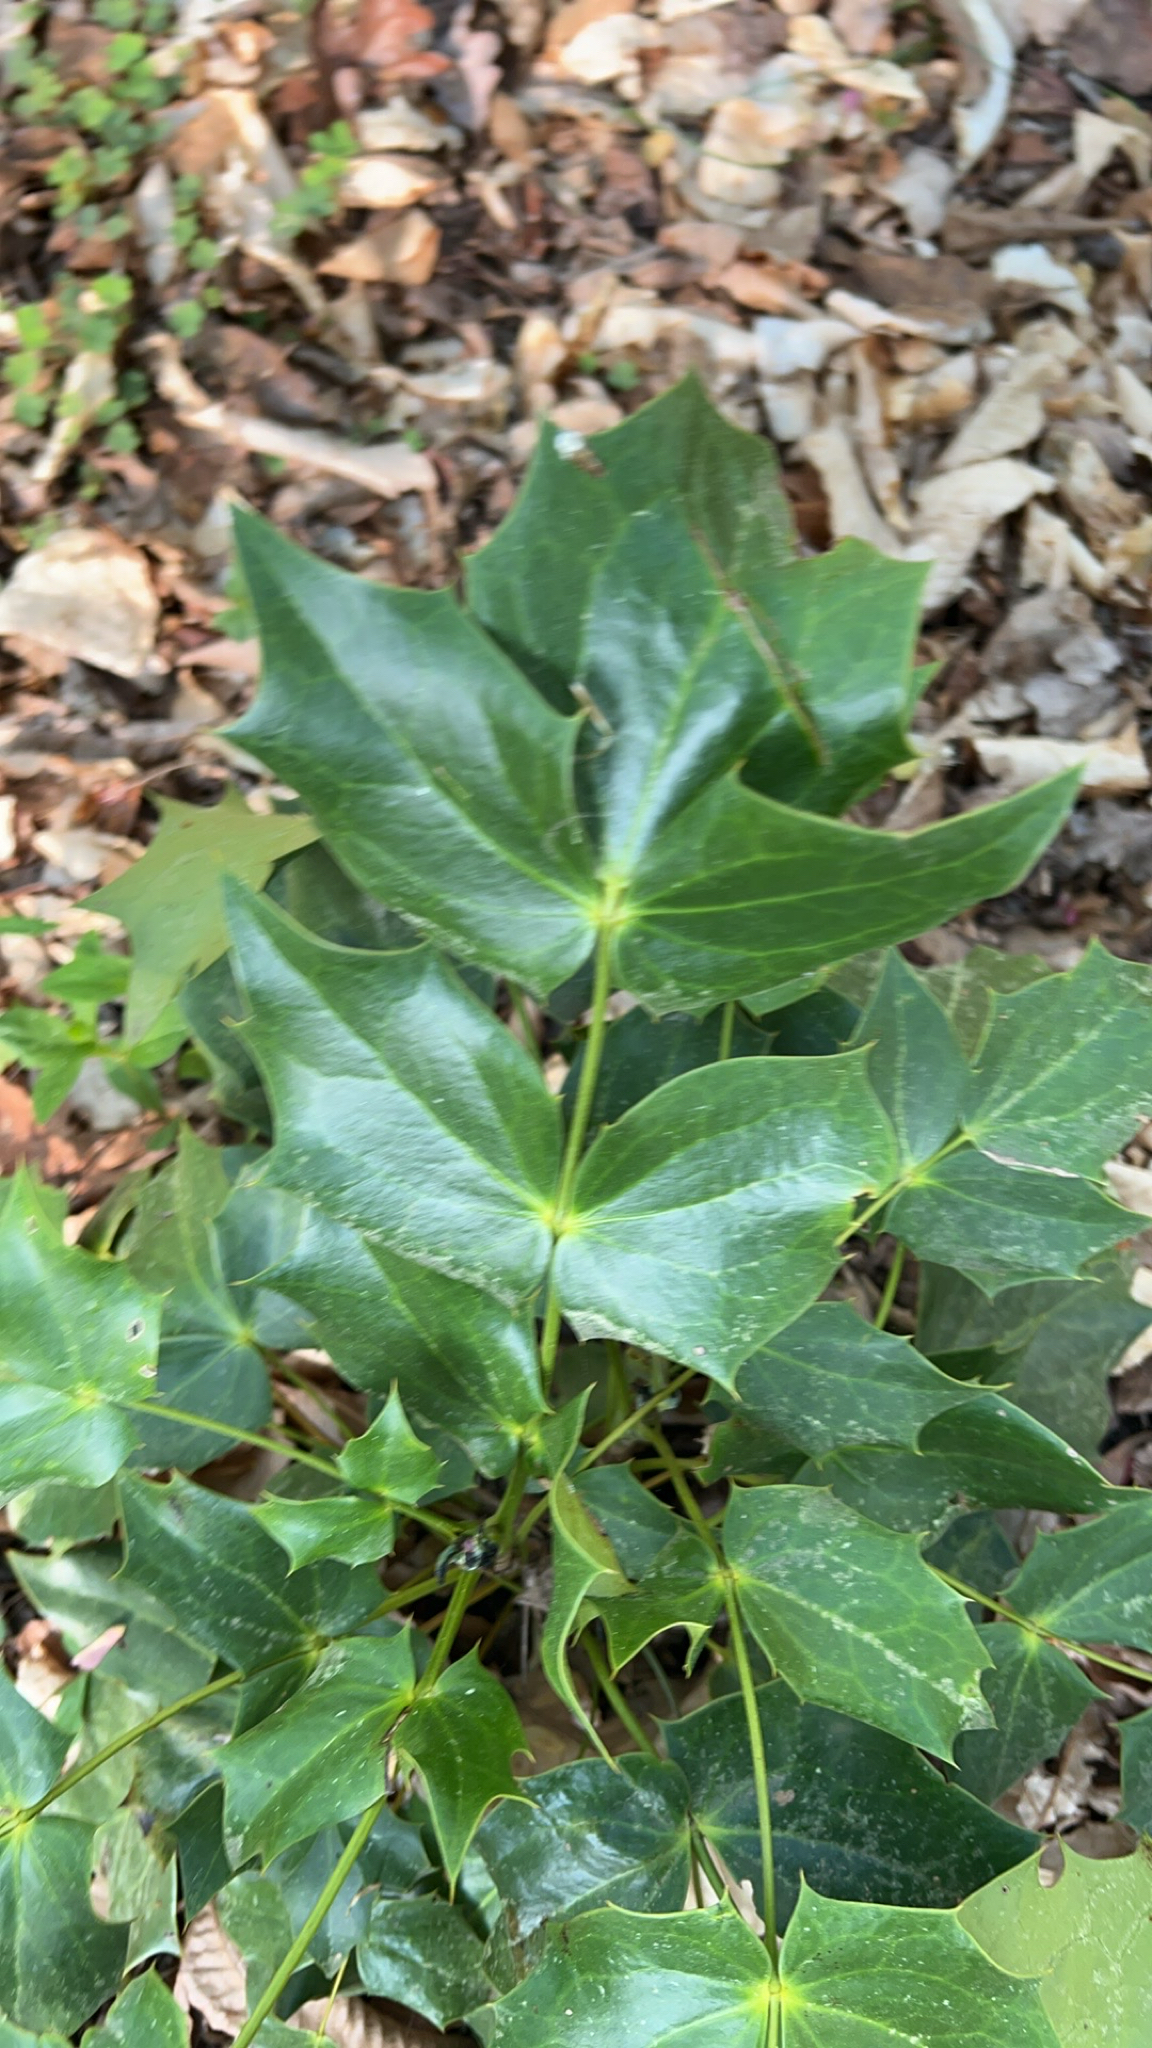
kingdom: Plantae
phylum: Tracheophyta
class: Magnoliopsida
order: Ranunculales
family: Berberidaceae
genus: Mahonia
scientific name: Mahonia bealei
